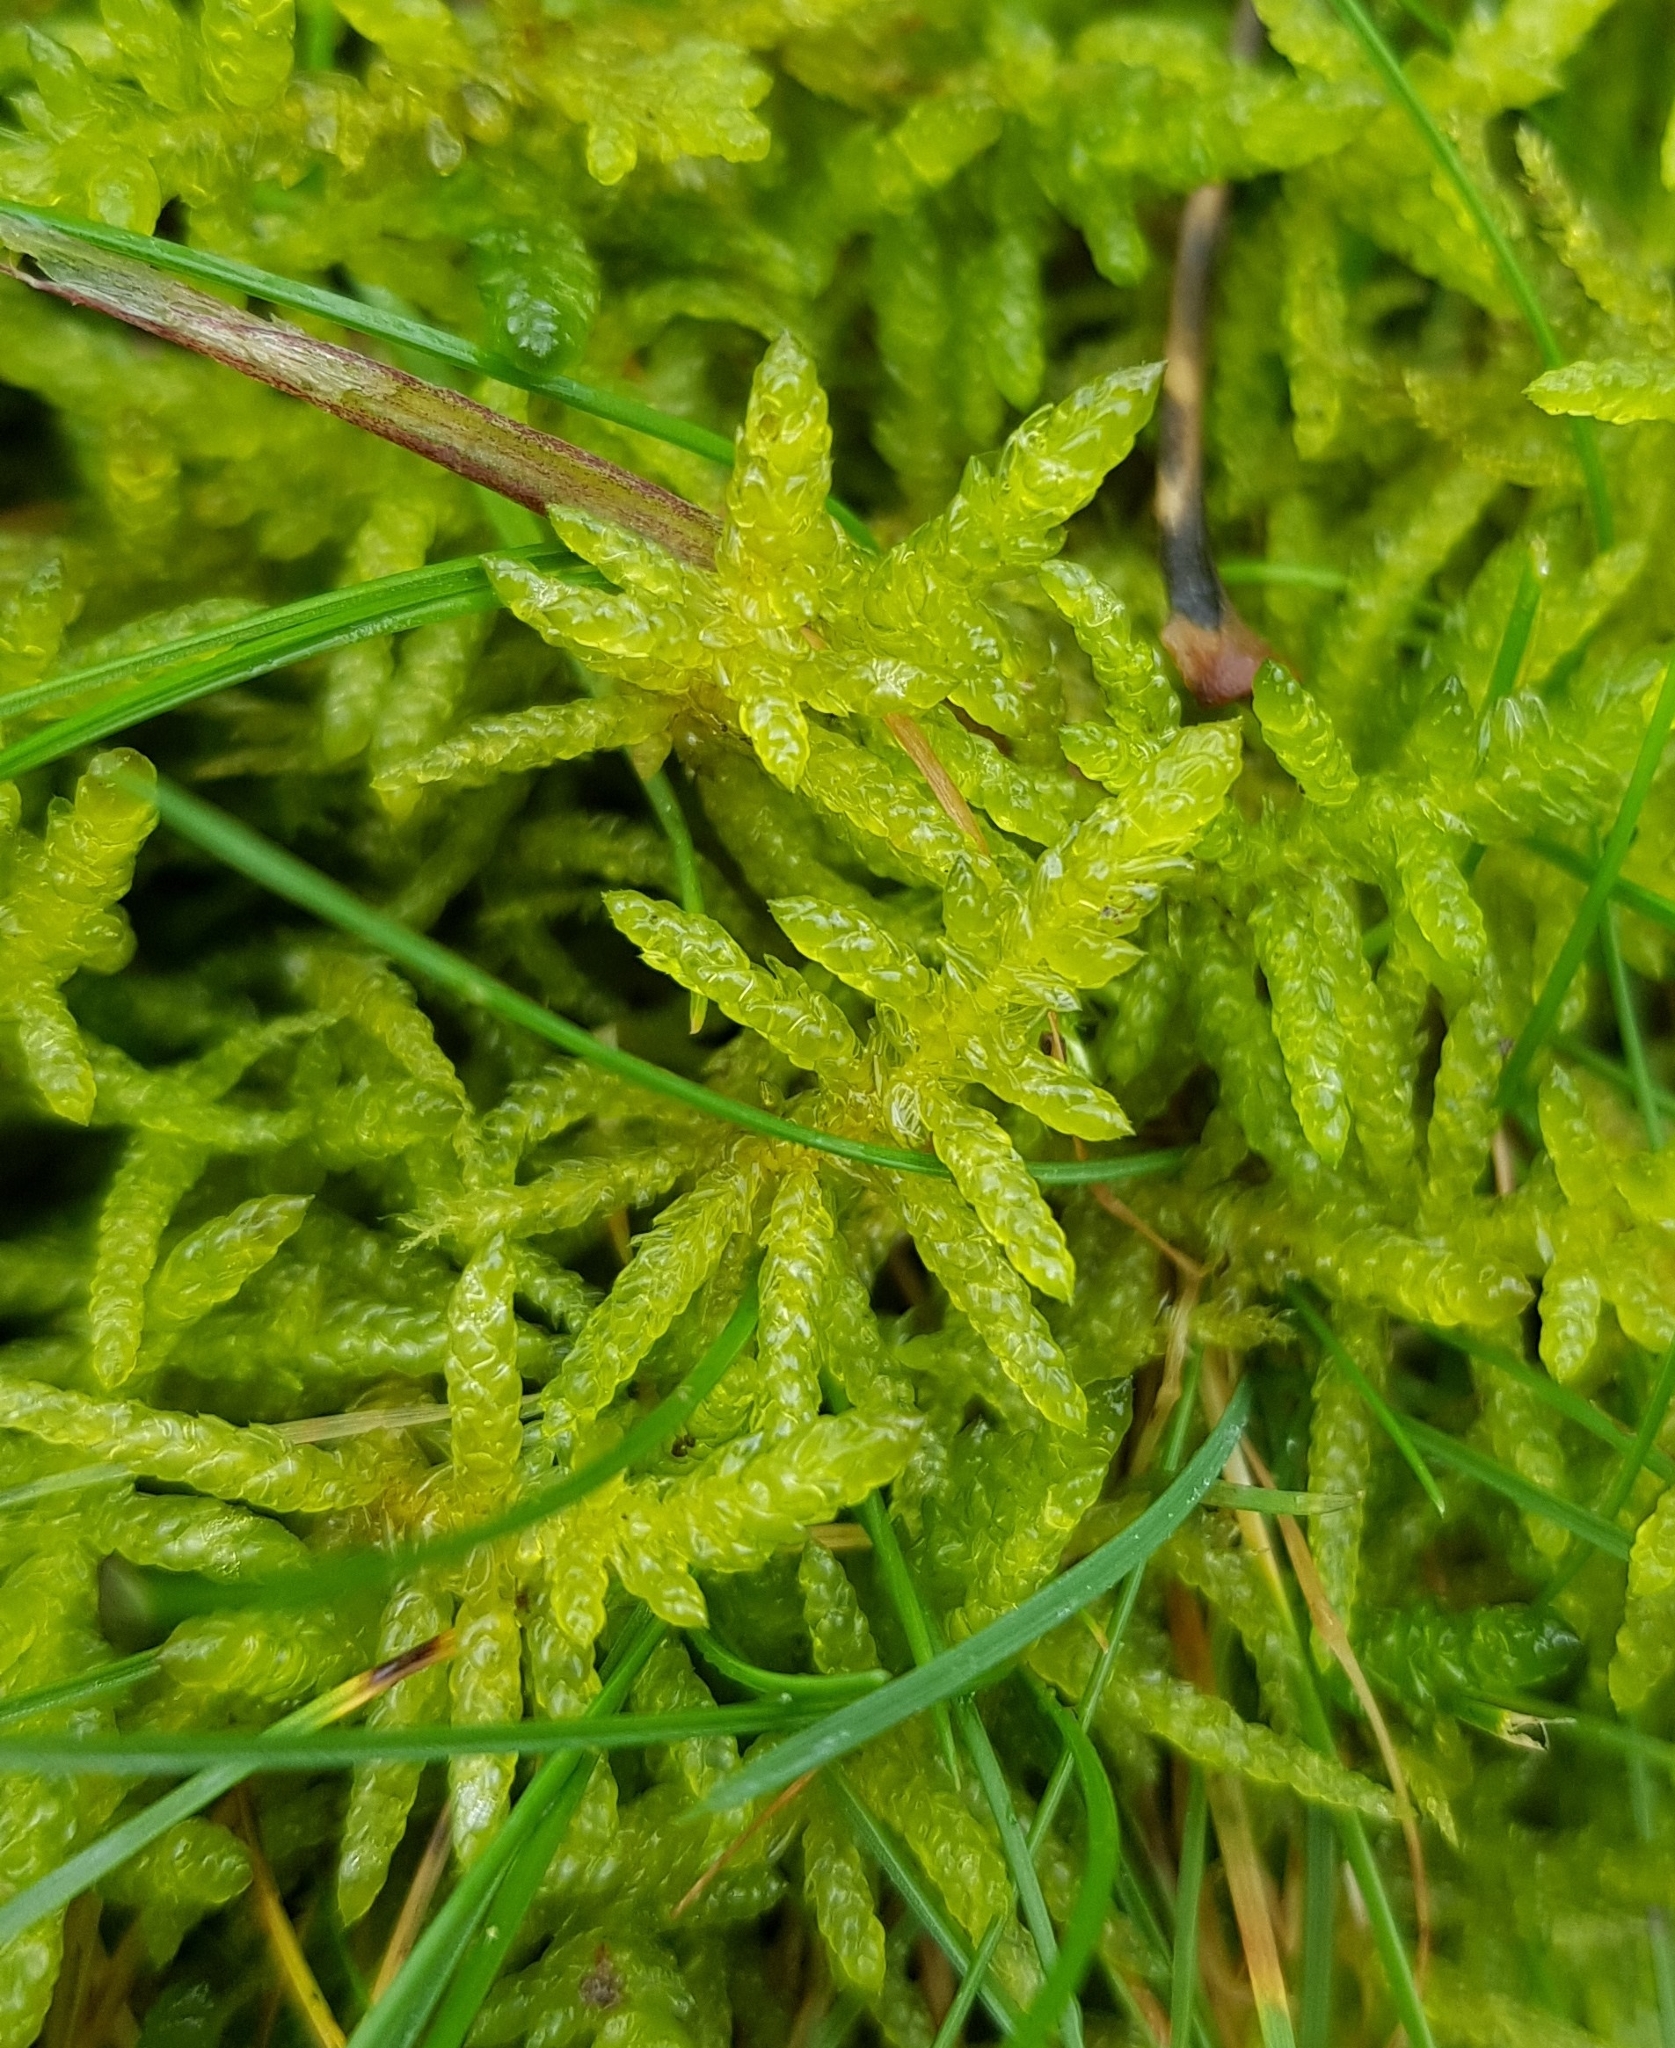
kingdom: Plantae
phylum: Bryophyta
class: Bryopsida
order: Hypnales
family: Brachytheciaceae
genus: Pseudoscleropodium
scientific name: Pseudoscleropodium purum
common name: Neat feather-moss
